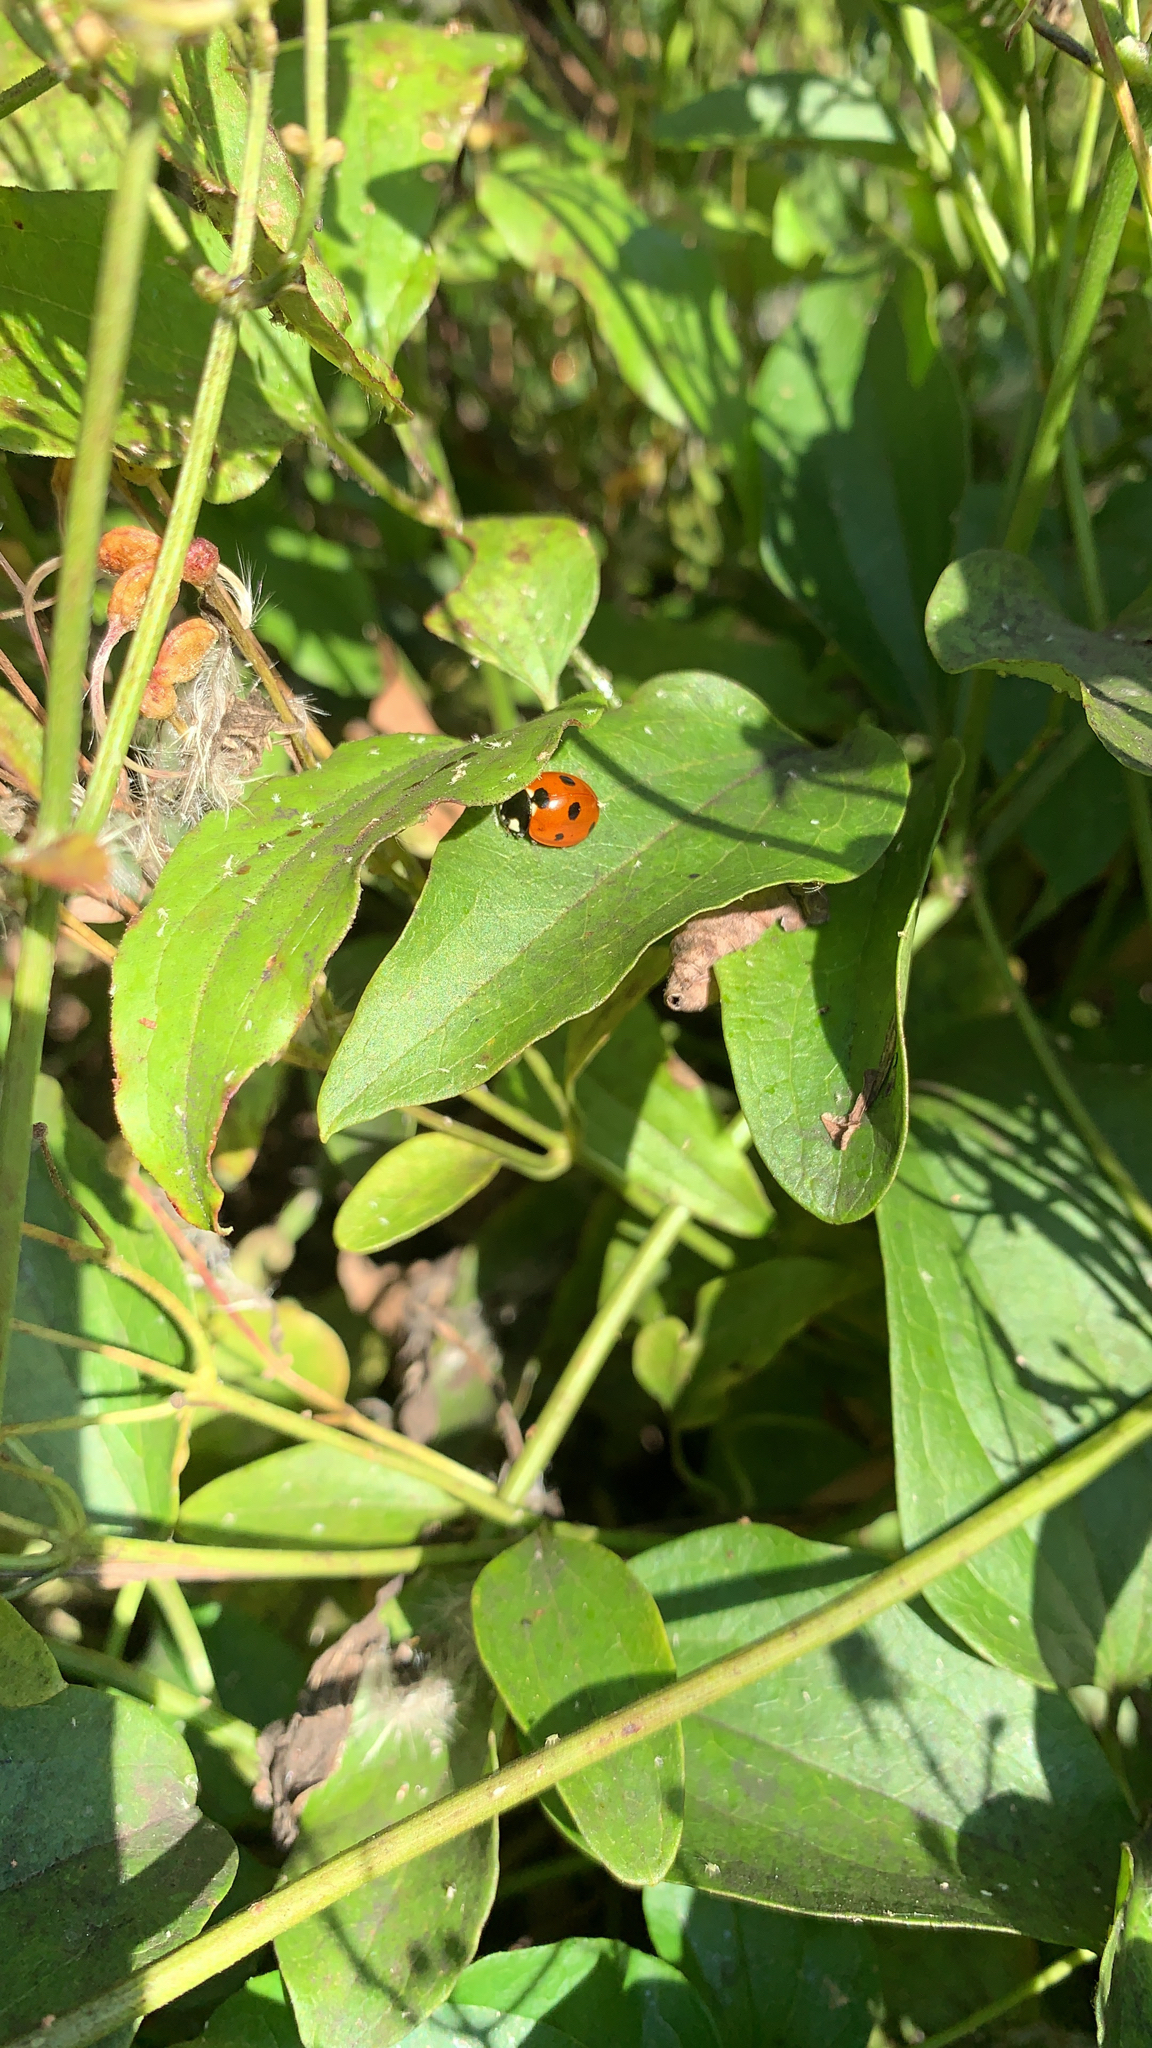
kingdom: Animalia
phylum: Arthropoda
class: Insecta
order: Coleoptera
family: Coccinellidae
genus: Coccinella
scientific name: Coccinella septempunctata
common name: Sevenspotted lady beetle
